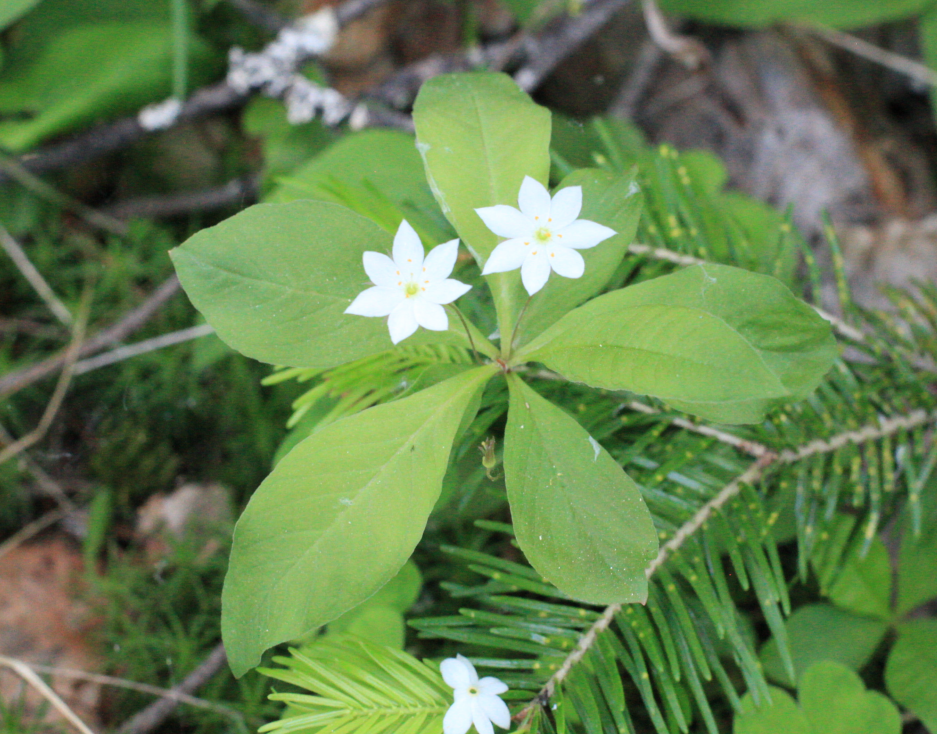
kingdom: Plantae
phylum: Tracheophyta
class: Magnoliopsida
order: Ericales
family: Primulaceae
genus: Lysimachia
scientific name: Lysimachia europaea
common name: Arctic starflower
